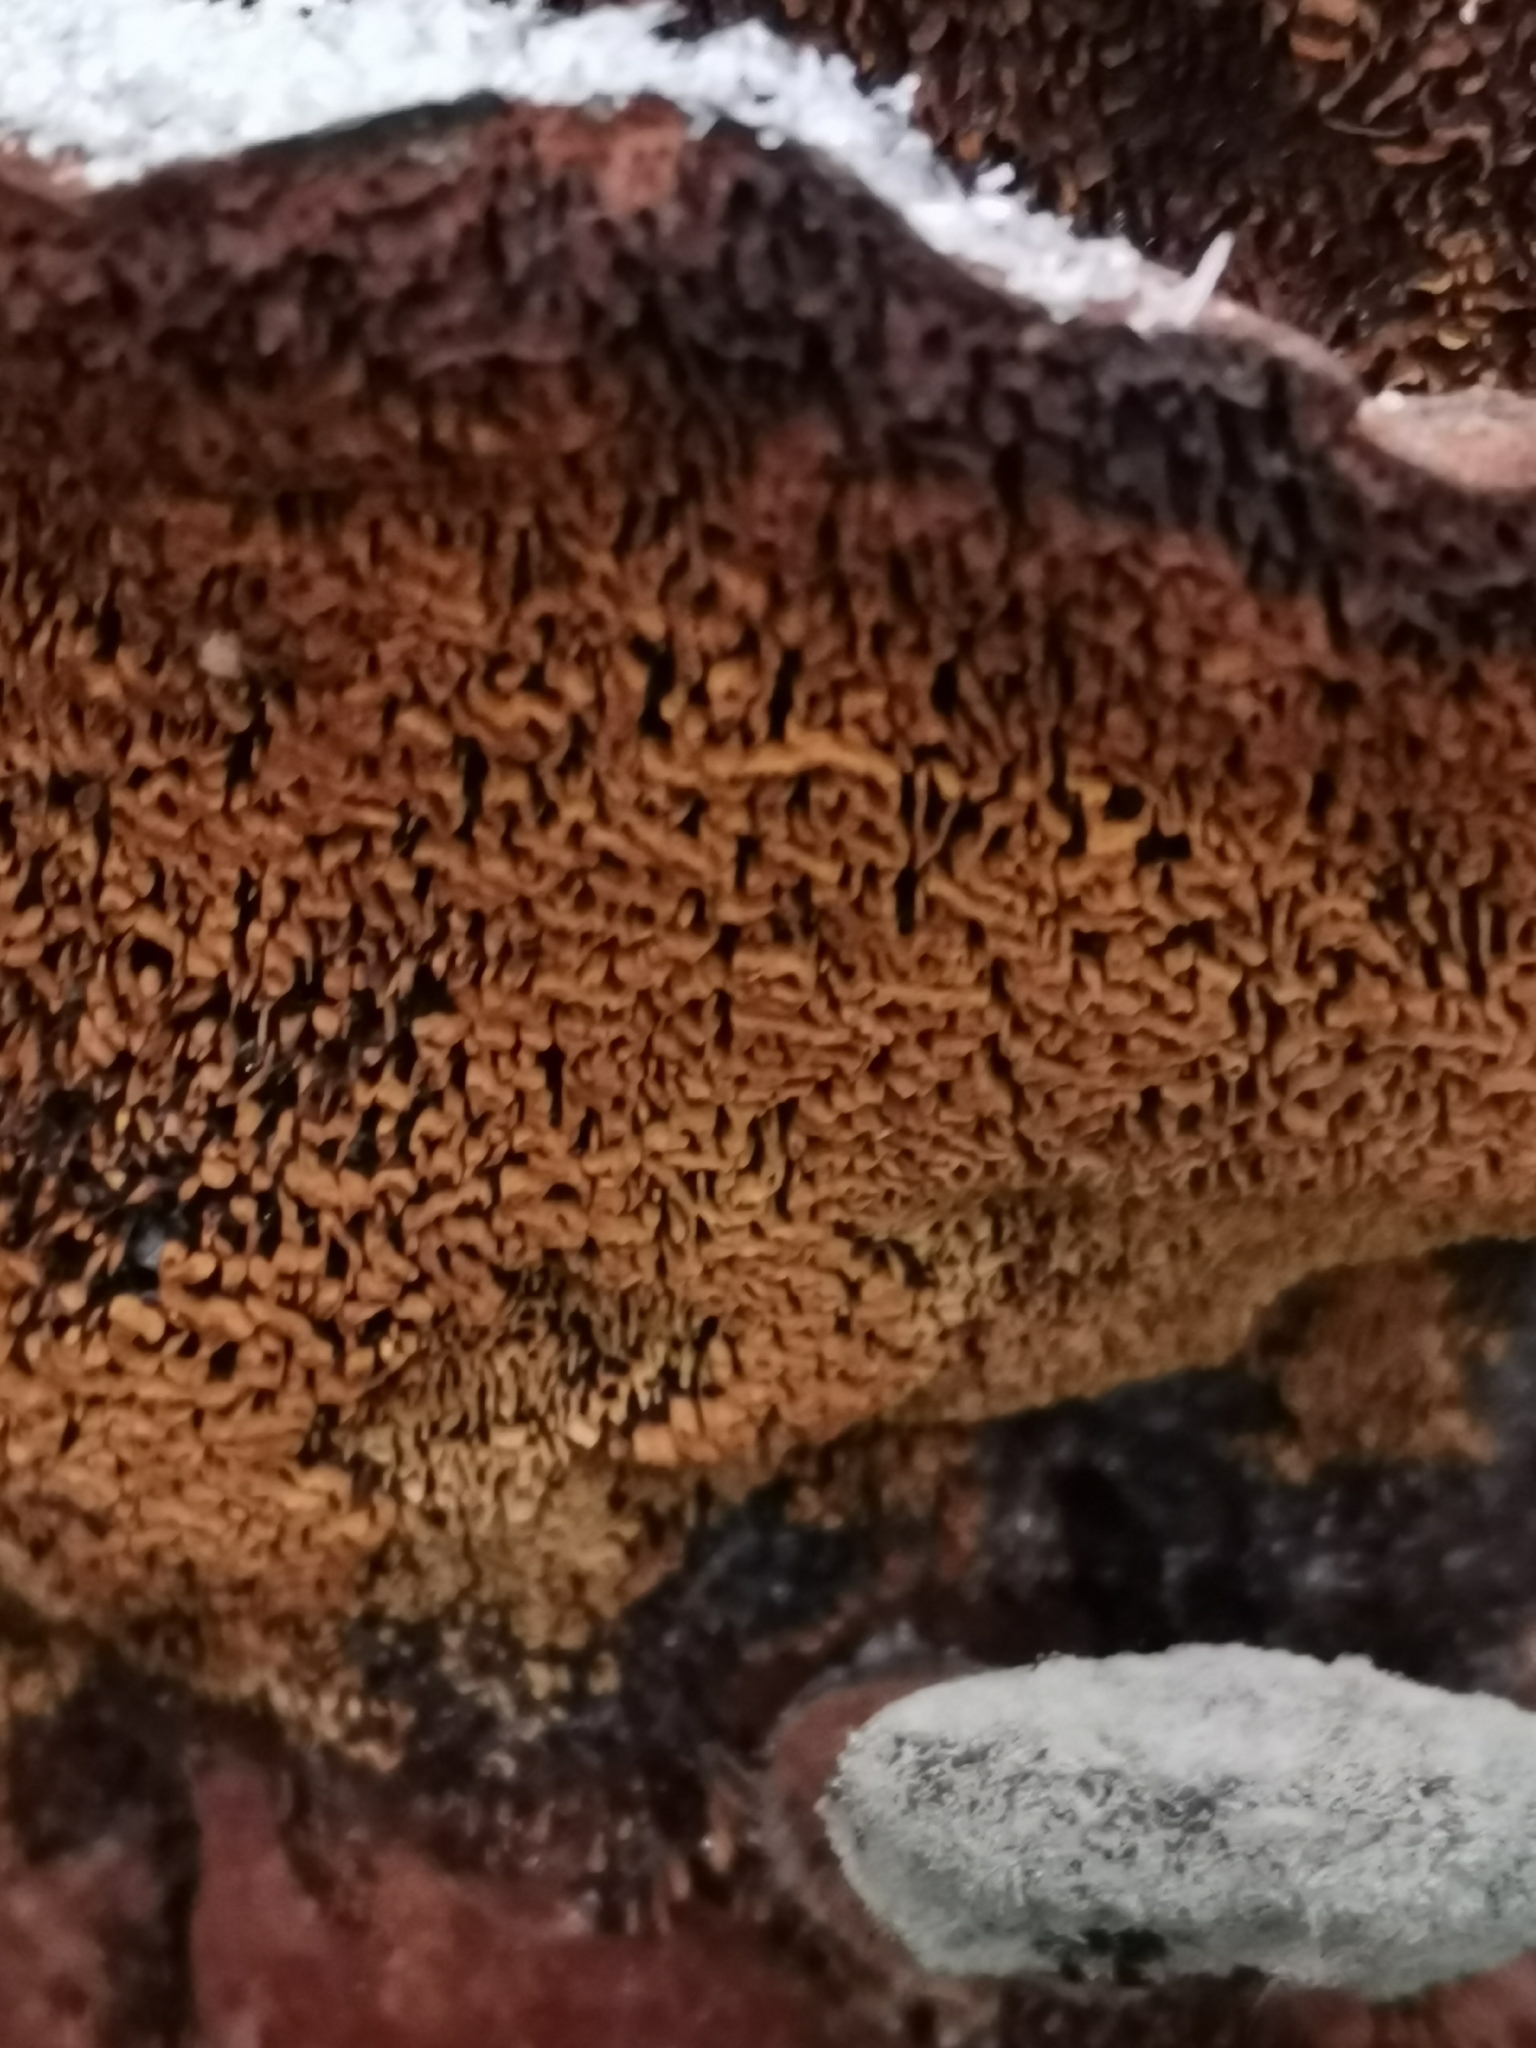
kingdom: Fungi
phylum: Basidiomycota
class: Agaricomycetes
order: Hymenochaetales
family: Hymenochaetaceae
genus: Porodaedalea
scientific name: Porodaedalea abietis
